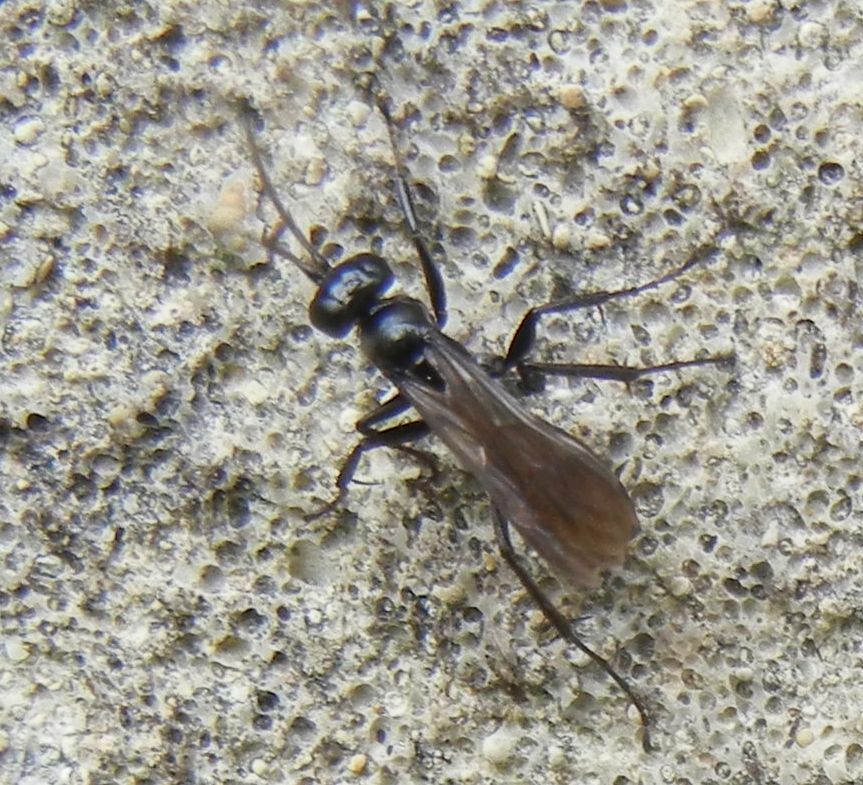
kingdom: Animalia
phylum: Arthropoda
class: Insecta
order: Hymenoptera
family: Pompilidae
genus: Auplopus
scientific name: Auplopus carbonarius
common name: Spider wasp
